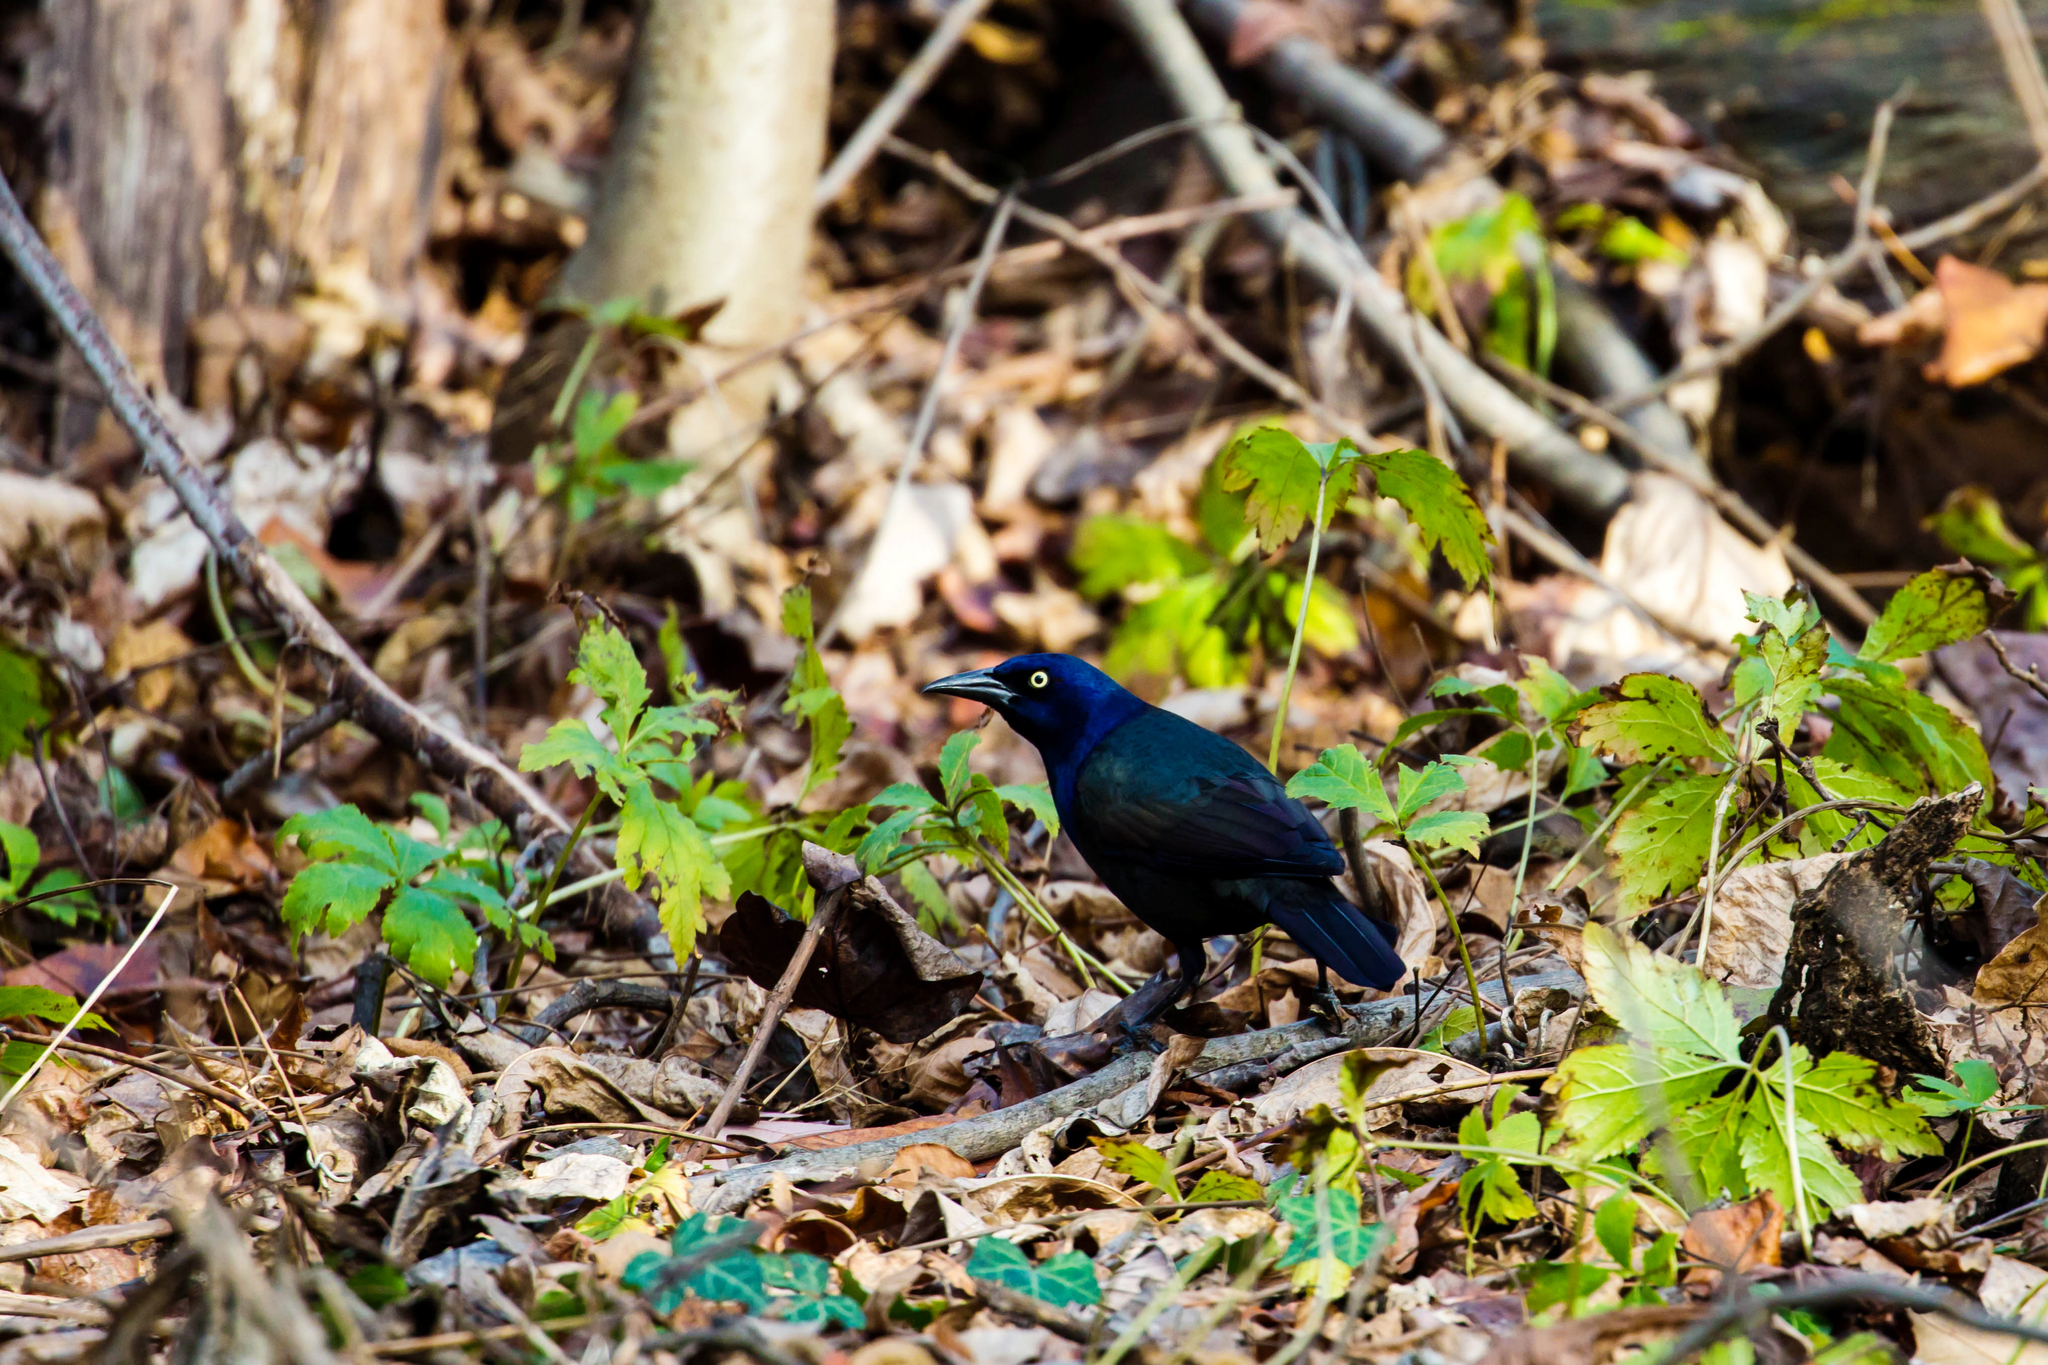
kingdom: Animalia
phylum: Chordata
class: Aves
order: Passeriformes
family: Icteridae
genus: Quiscalus
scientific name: Quiscalus quiscula
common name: Common grackle
